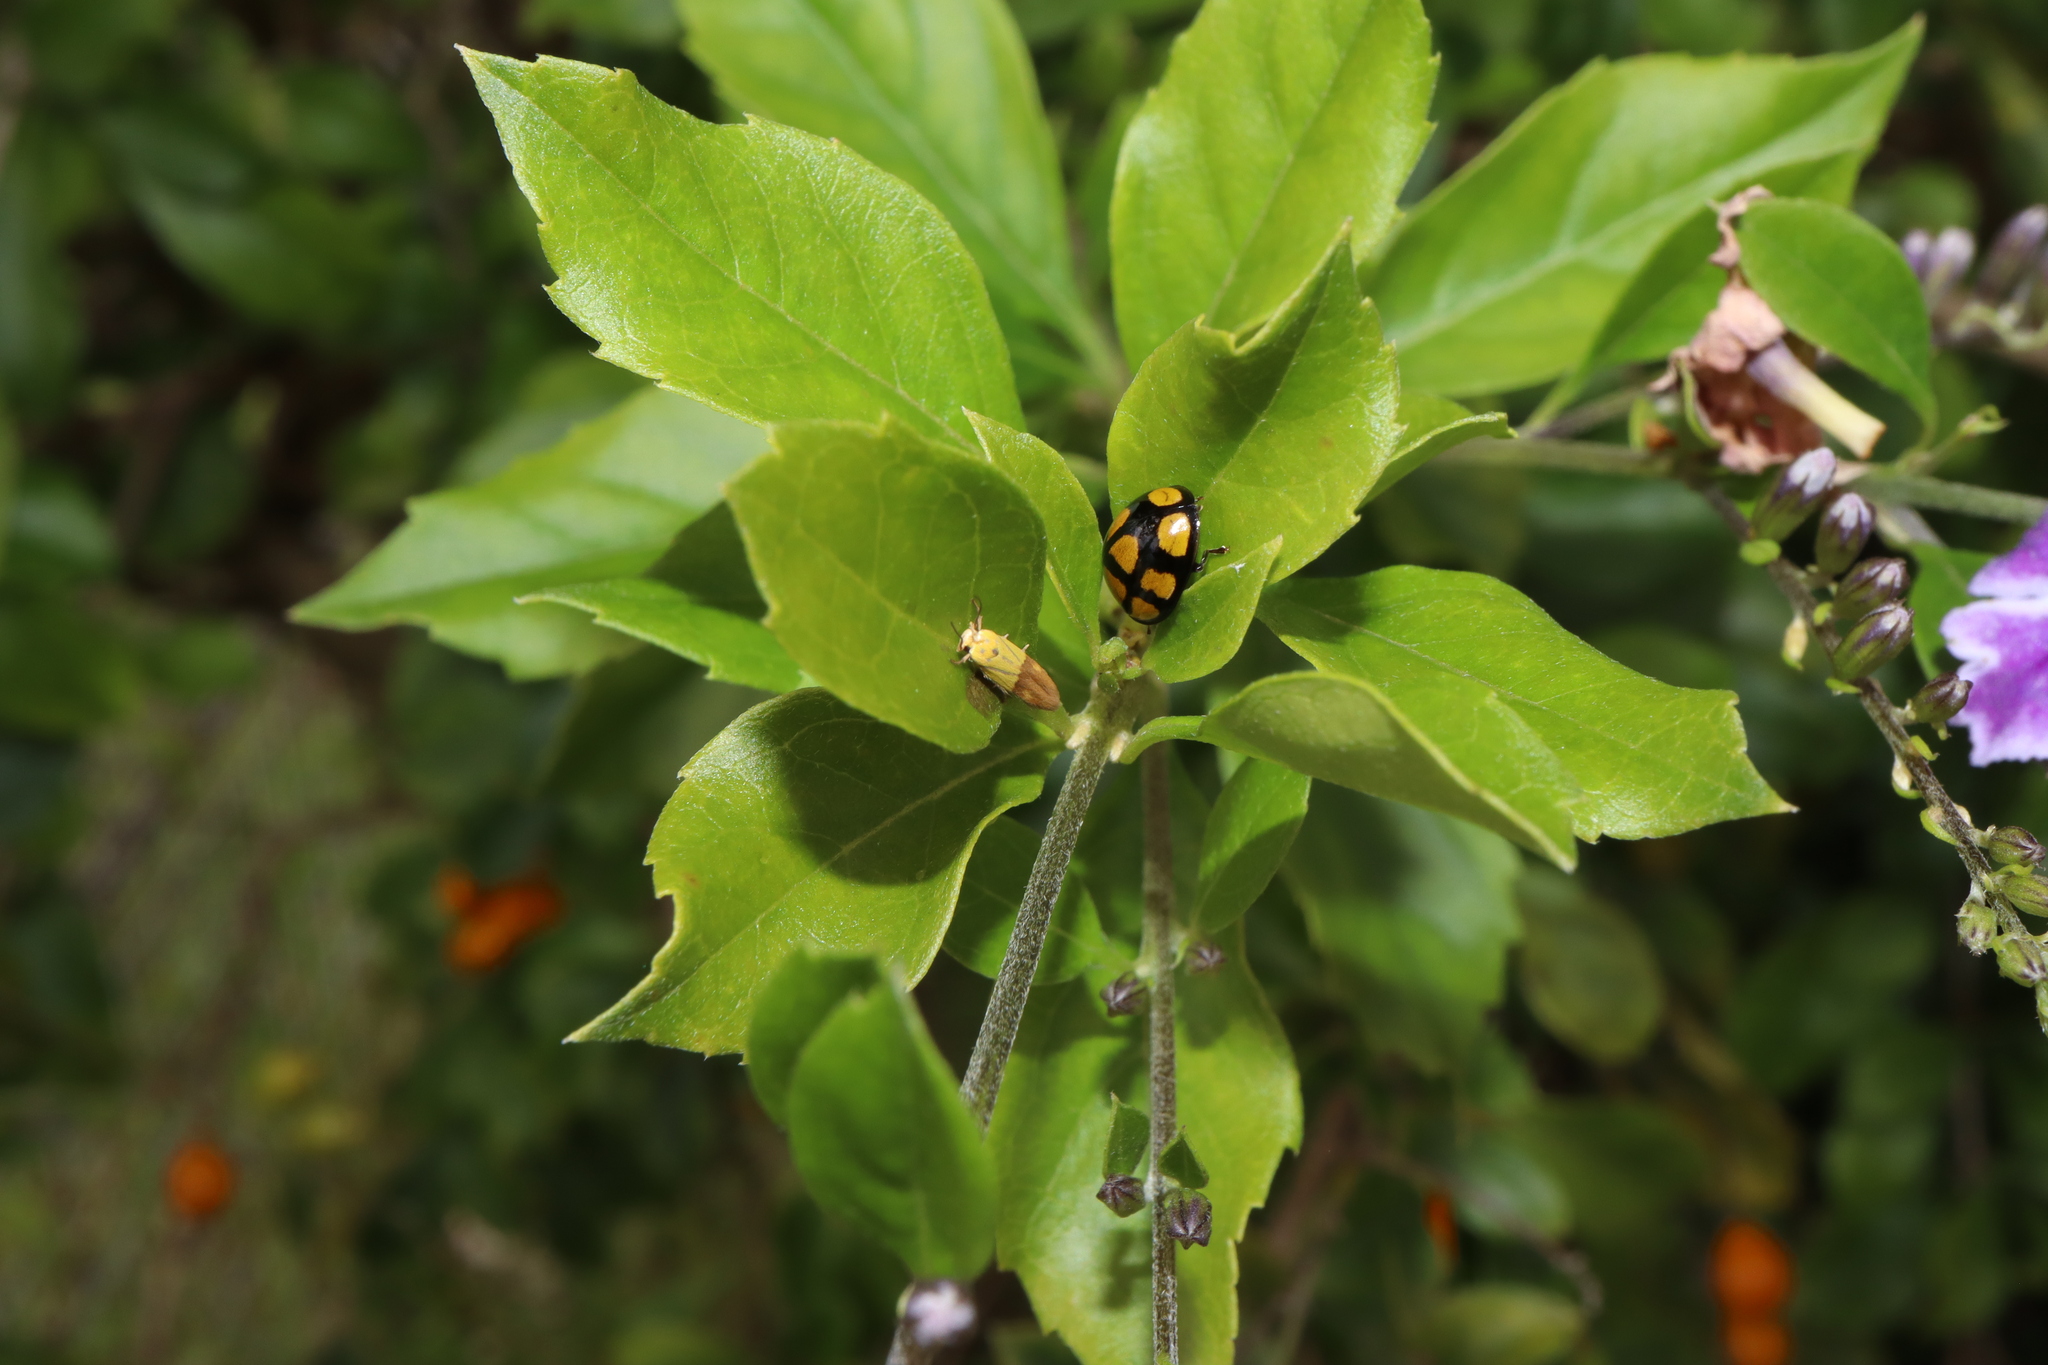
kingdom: Animalia
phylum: Arthropoda
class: Insecta
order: Coleoptera
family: Coccinellidae
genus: Harmonia
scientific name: Harmonia
